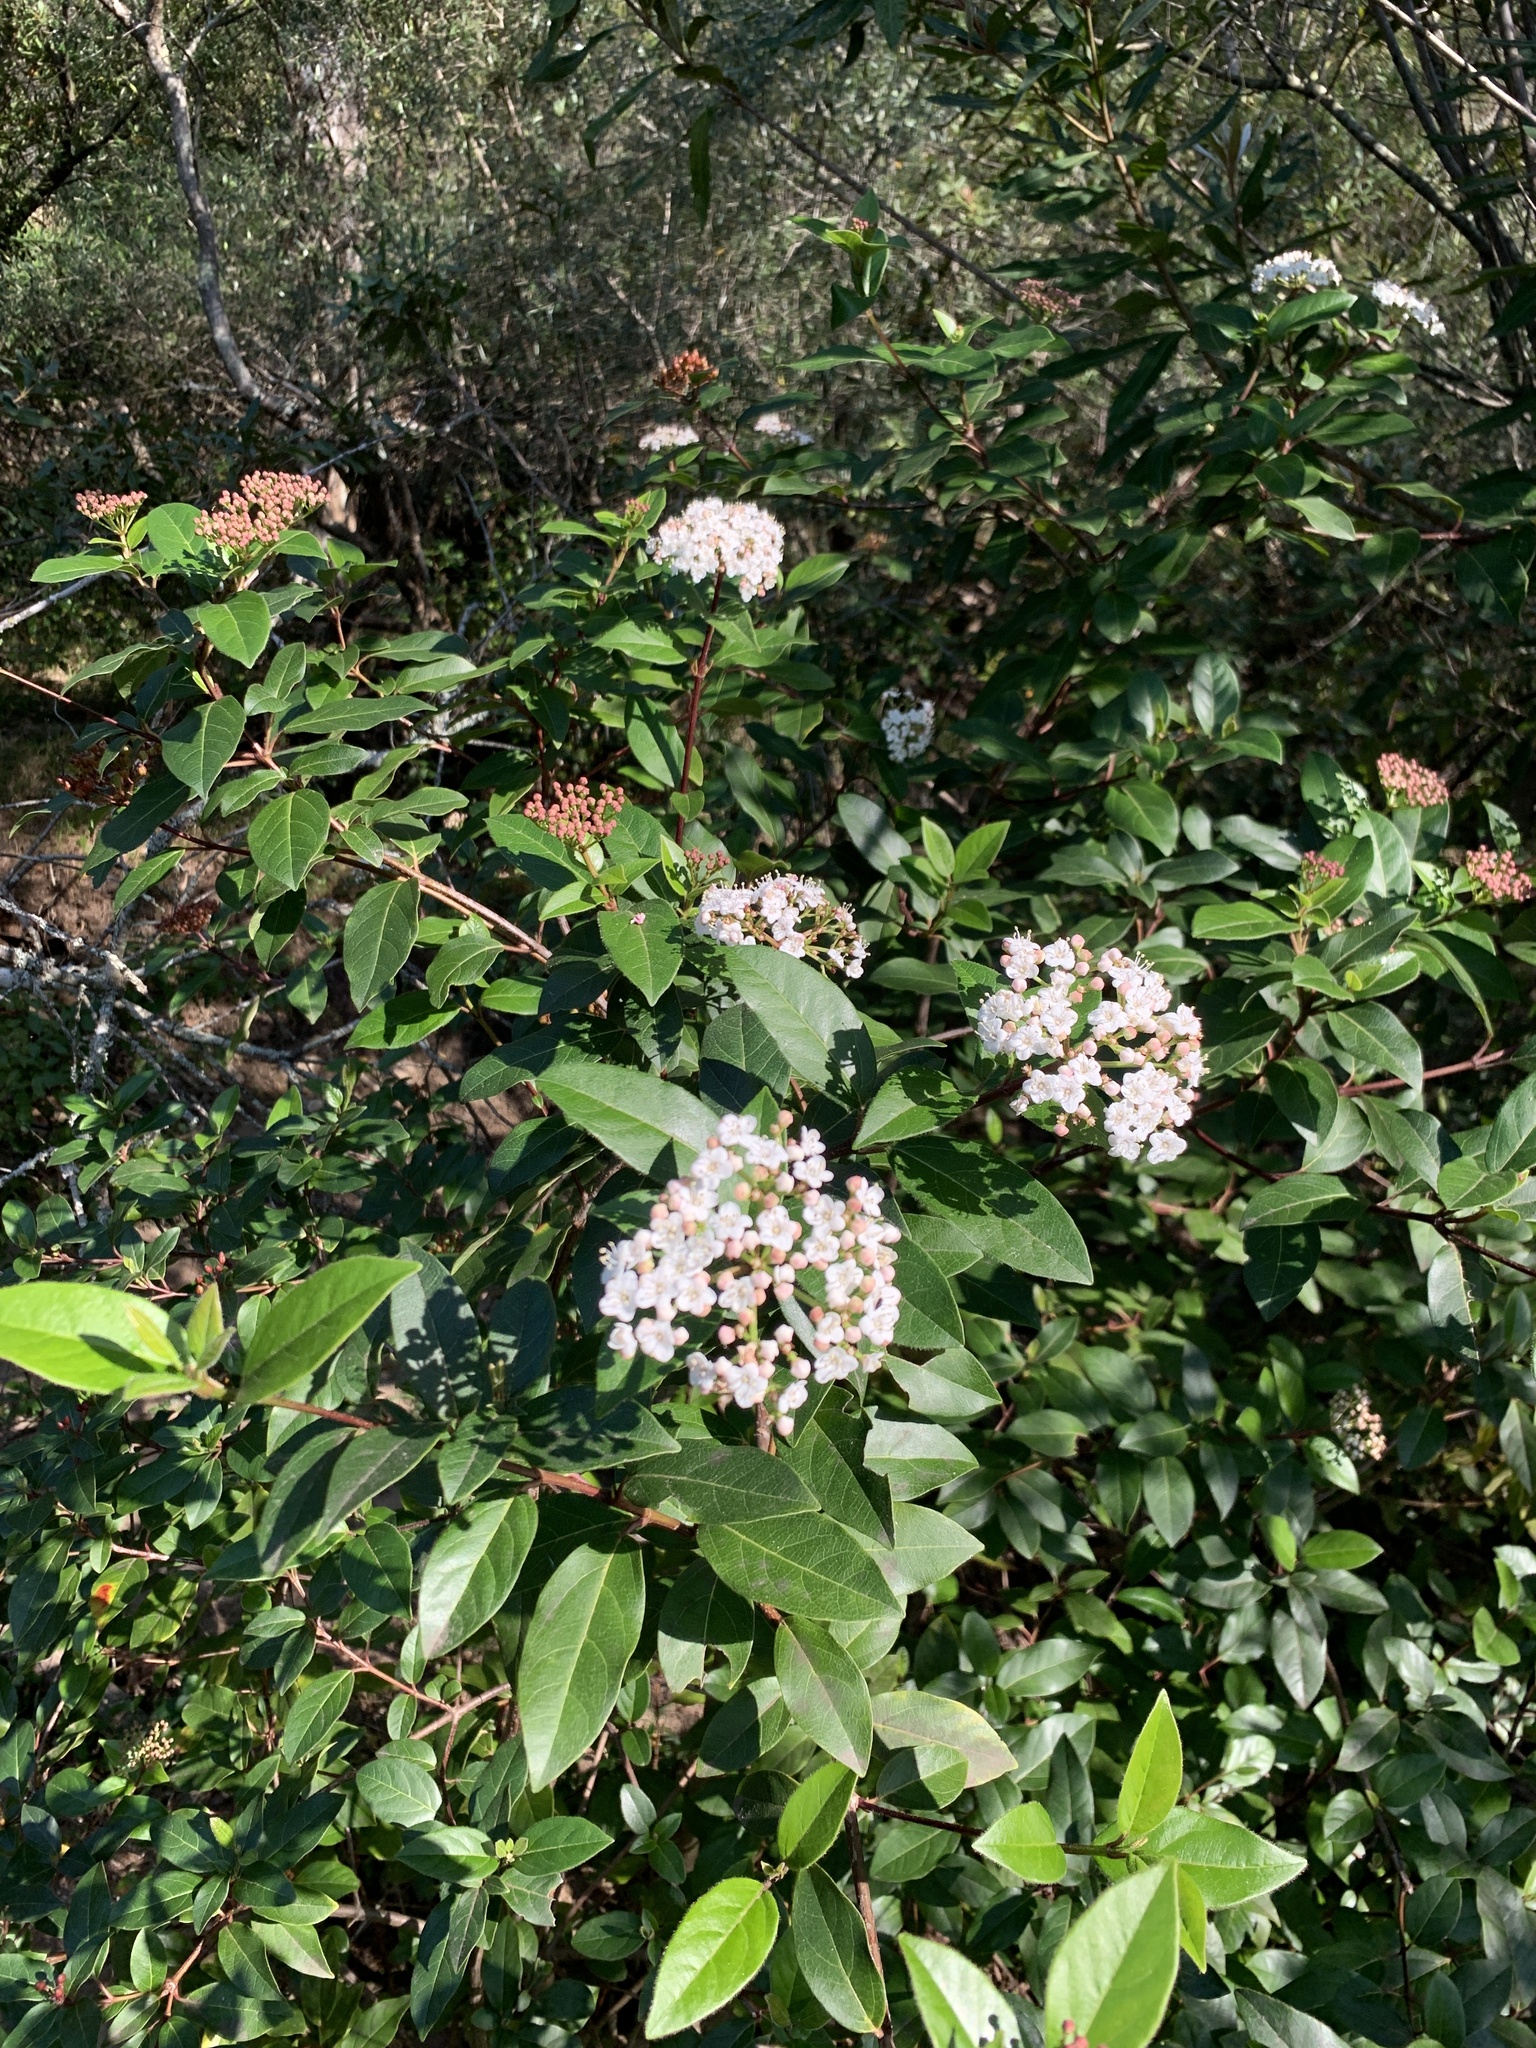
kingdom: Plantae
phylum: Tracheophyta
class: Magnoliopsida
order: Dipsacales
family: Viburnaceae
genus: Viburnum
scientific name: Viburnum tinus
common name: Laurustinus
